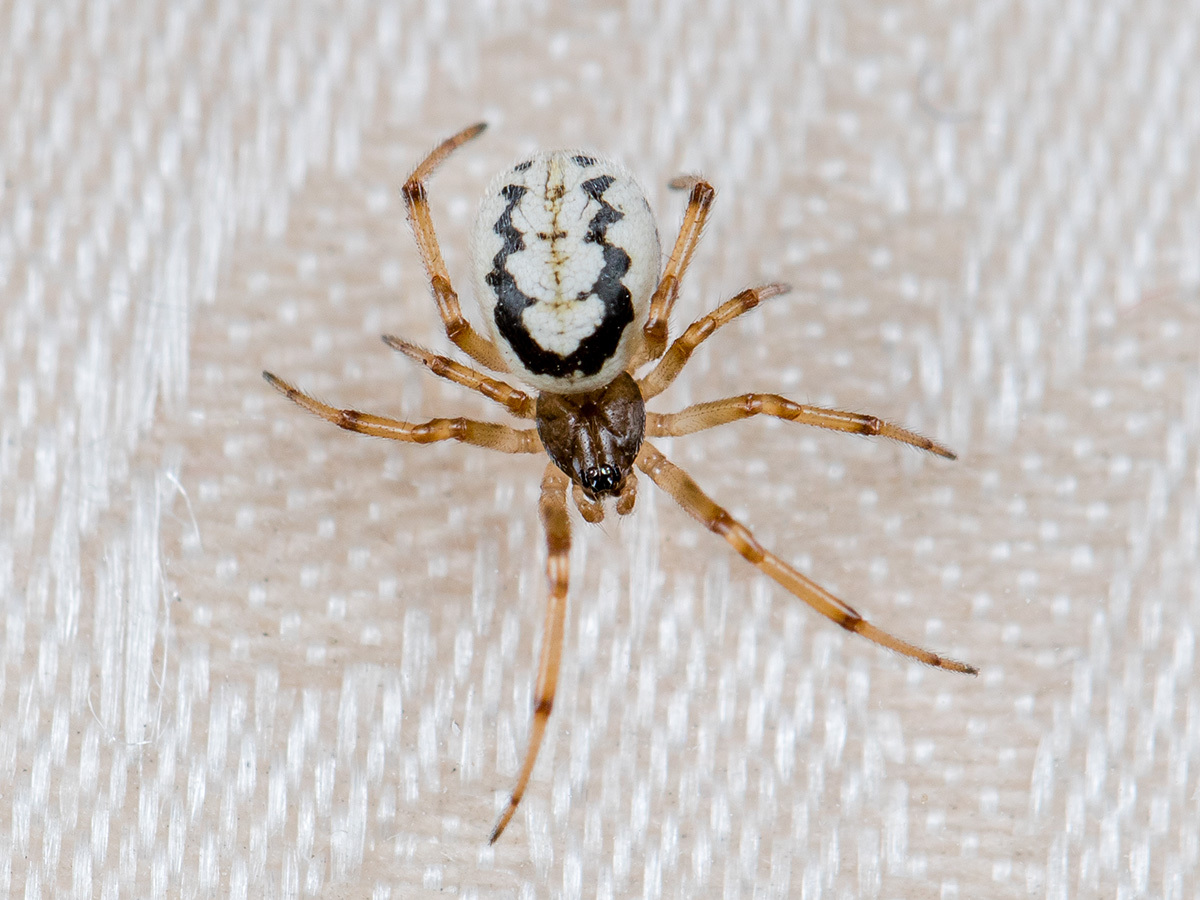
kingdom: Animalia
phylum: Arthropoda
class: Arachnida
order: Araneae
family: Theridiidae
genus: Steatoda
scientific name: Steatoda albomaculata
